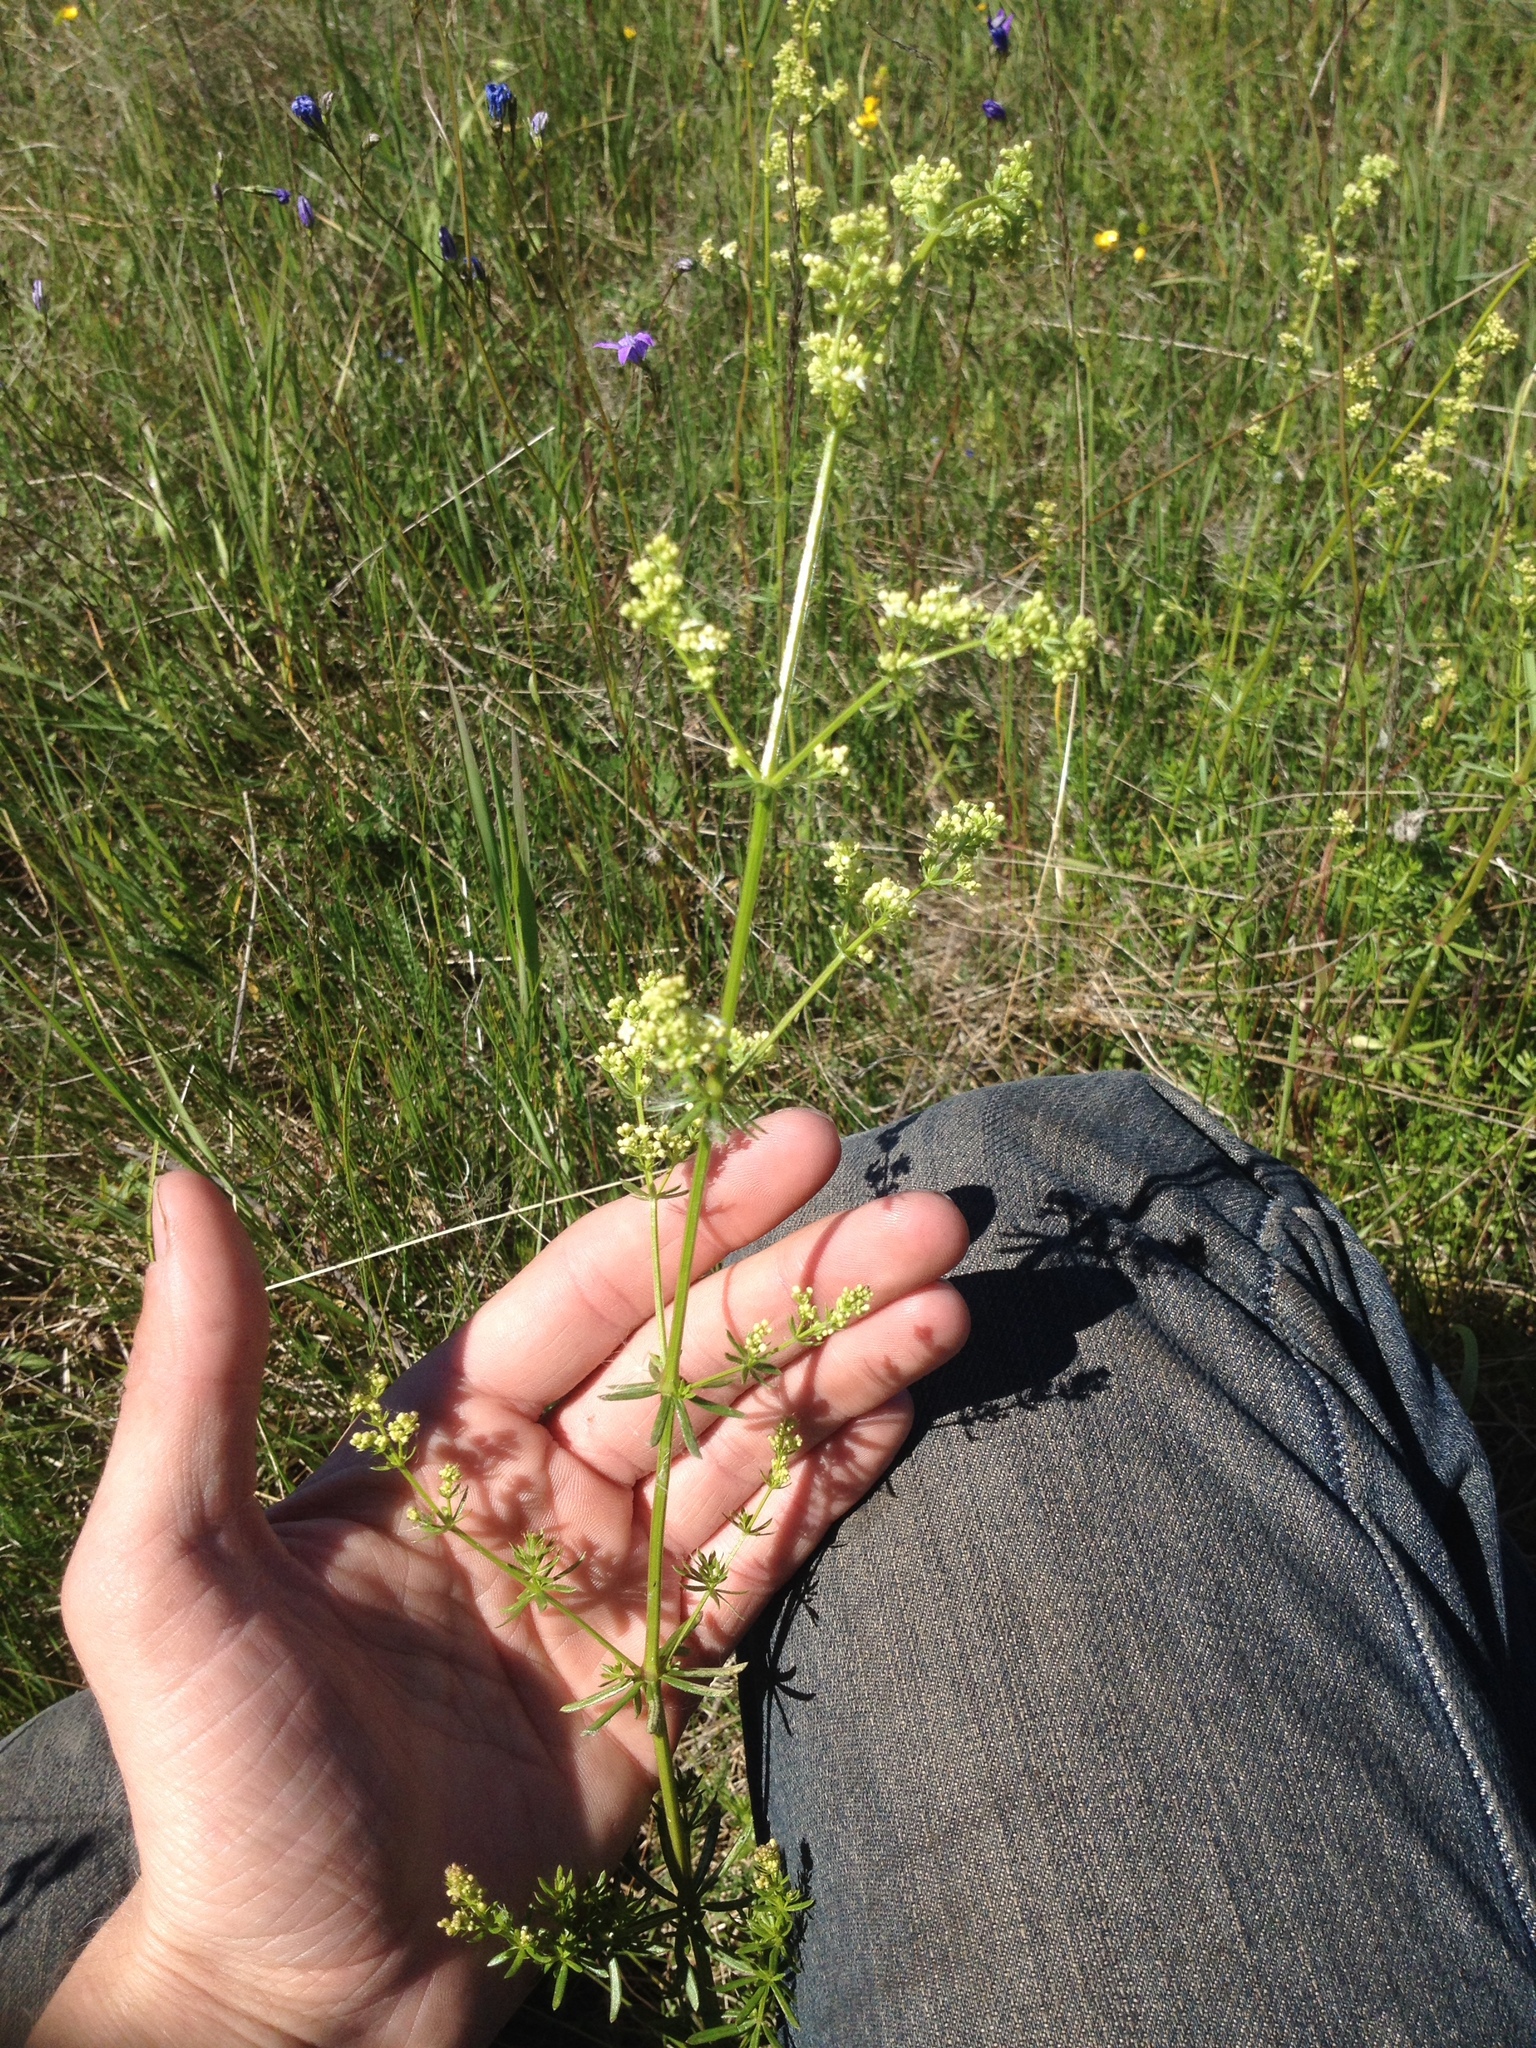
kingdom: Plantae
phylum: Tracheophyta
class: Magnoliopsida
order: Gentianales
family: Rubiaceae
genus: Galium
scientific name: Galium mollugo
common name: Hedge bedstraw
